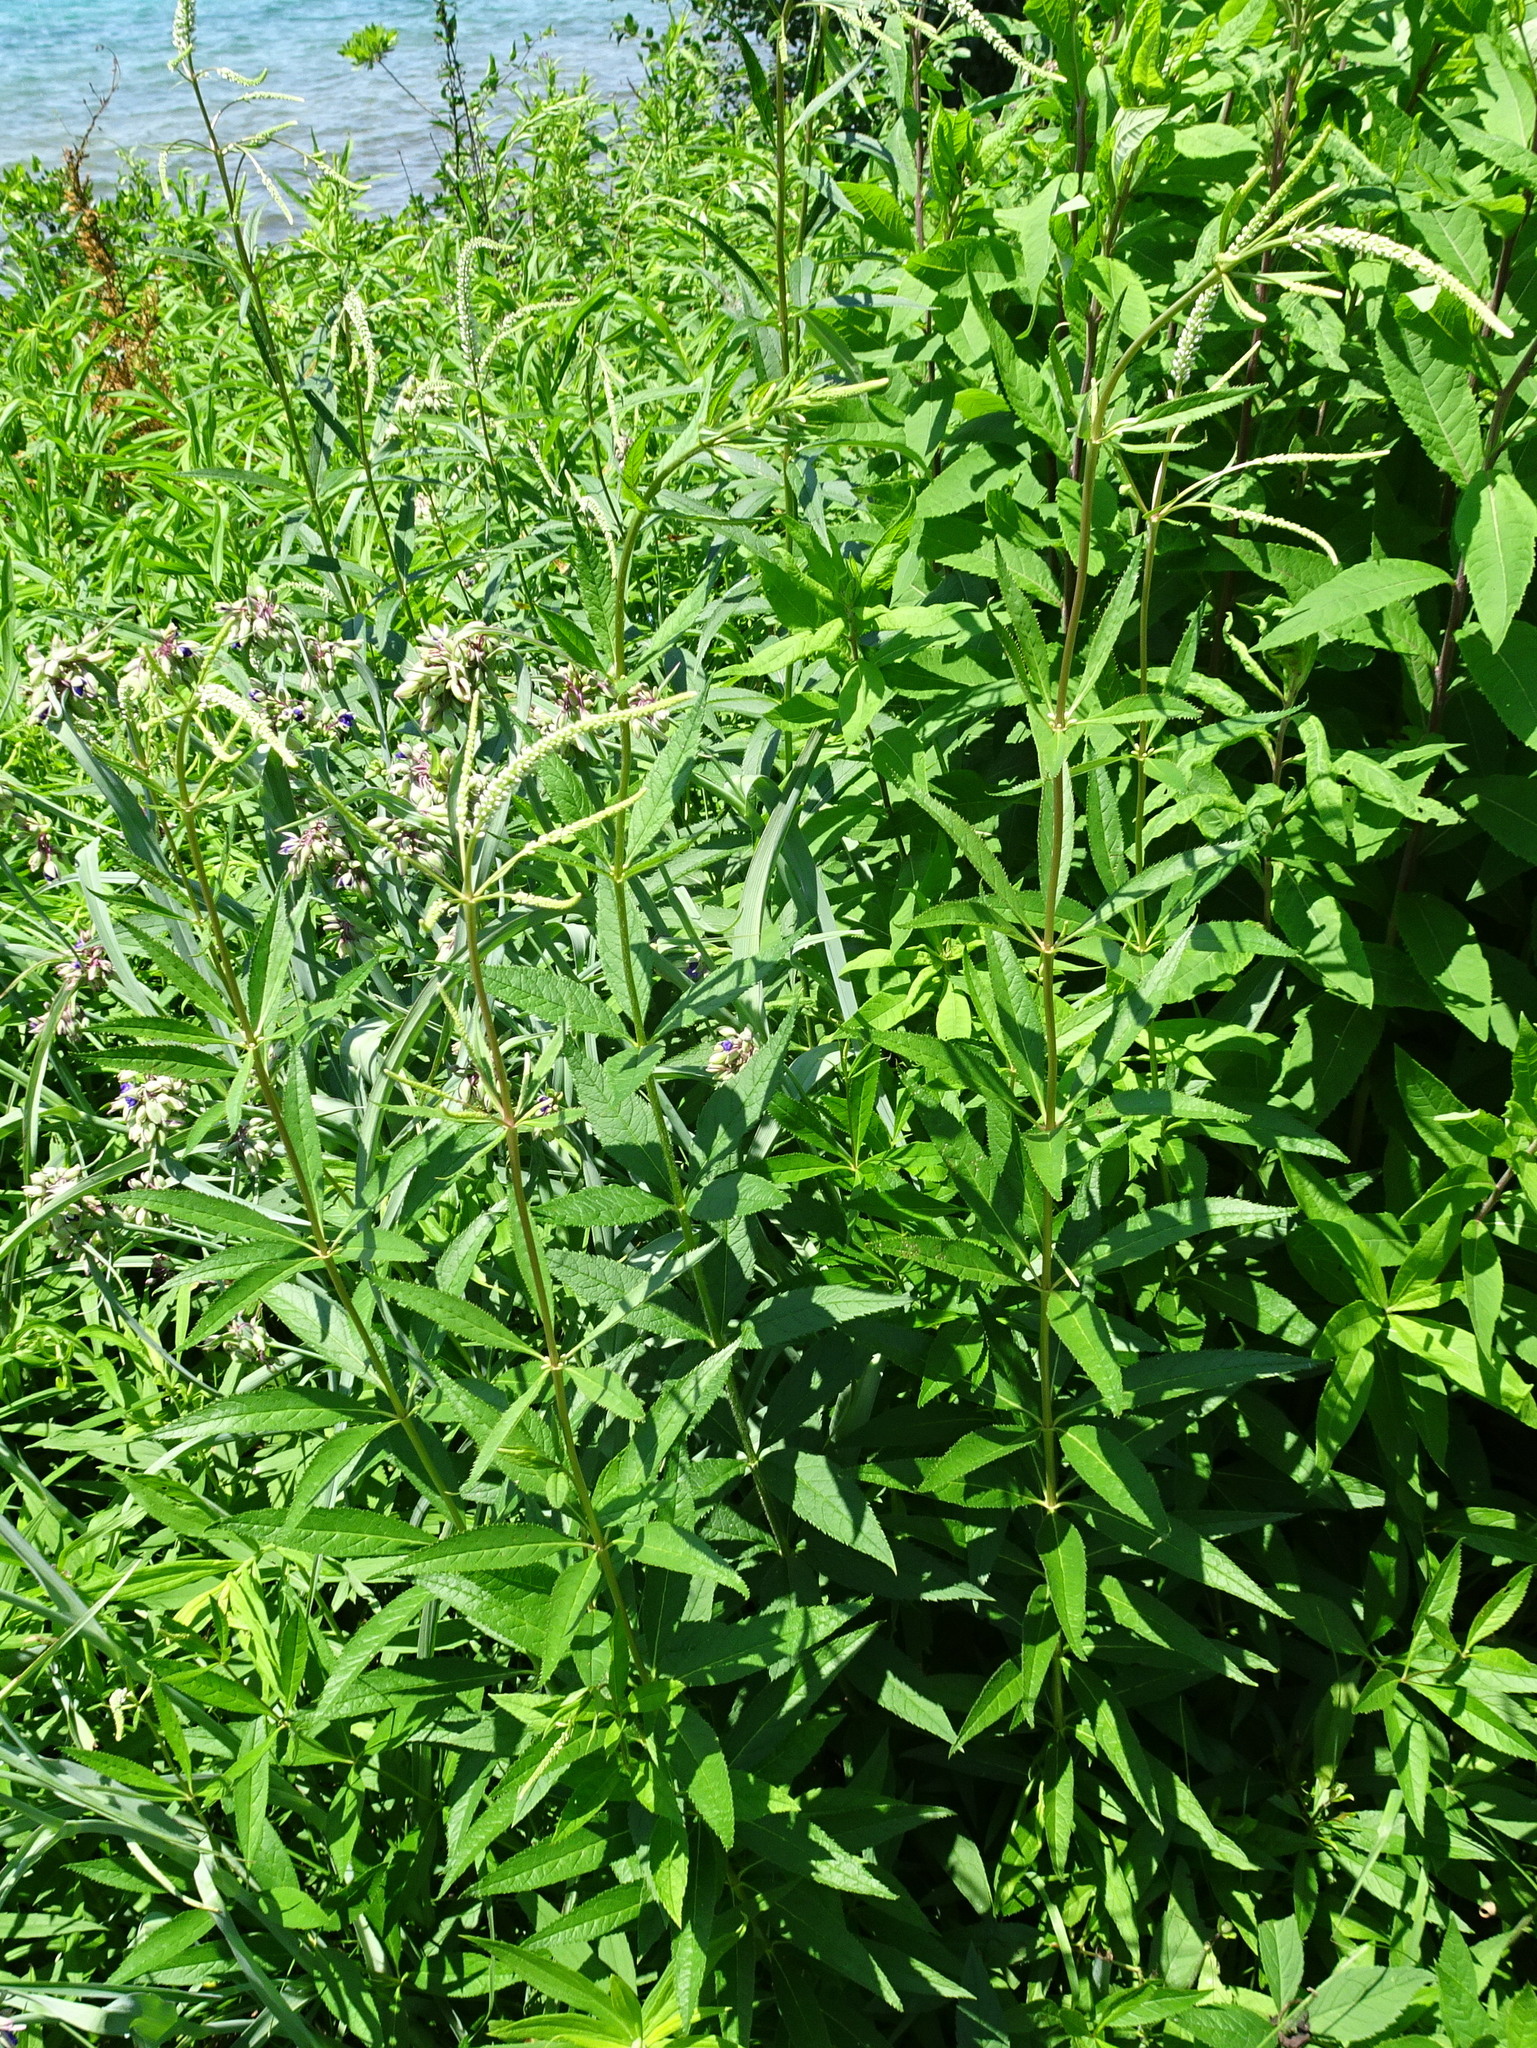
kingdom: Plantae
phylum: Tracheophyta
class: Magnoliopsida
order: Lamiales
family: Plantaginaceae
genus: Veronicastrum
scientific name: Veronicastrum virginicum
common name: Blackroot
